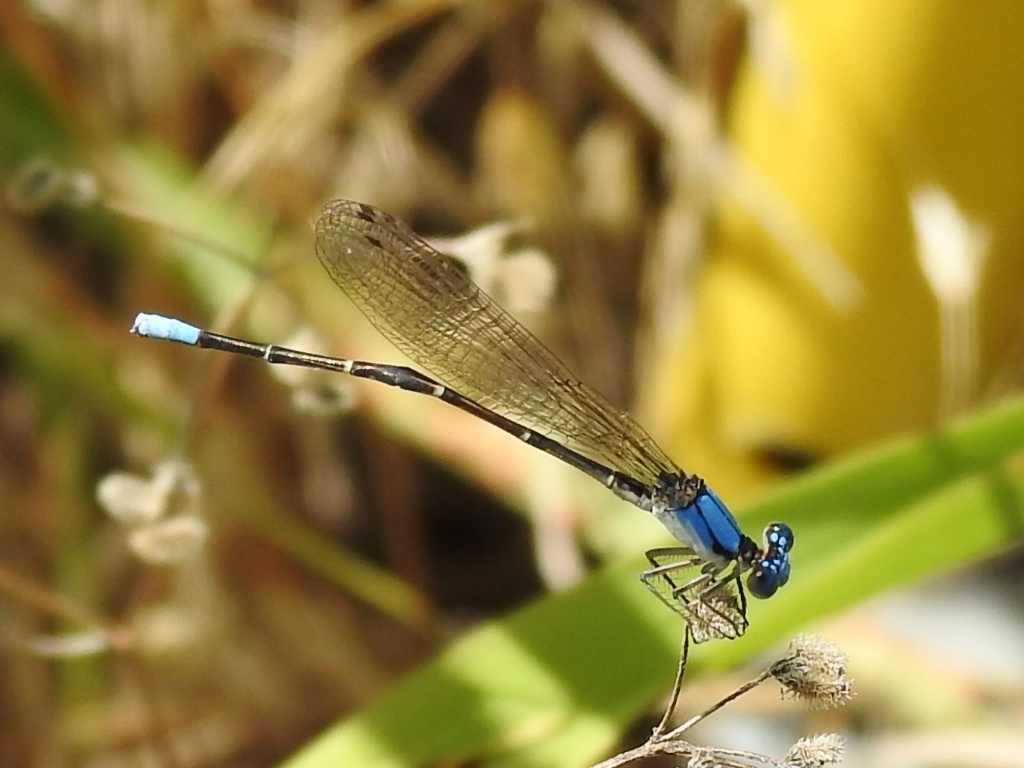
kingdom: Animalia
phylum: Arthropoda
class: Insecta
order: Odonata
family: Coenagrionidae
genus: Argia
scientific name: Argia apicalis
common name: Blue-fronted dancer
